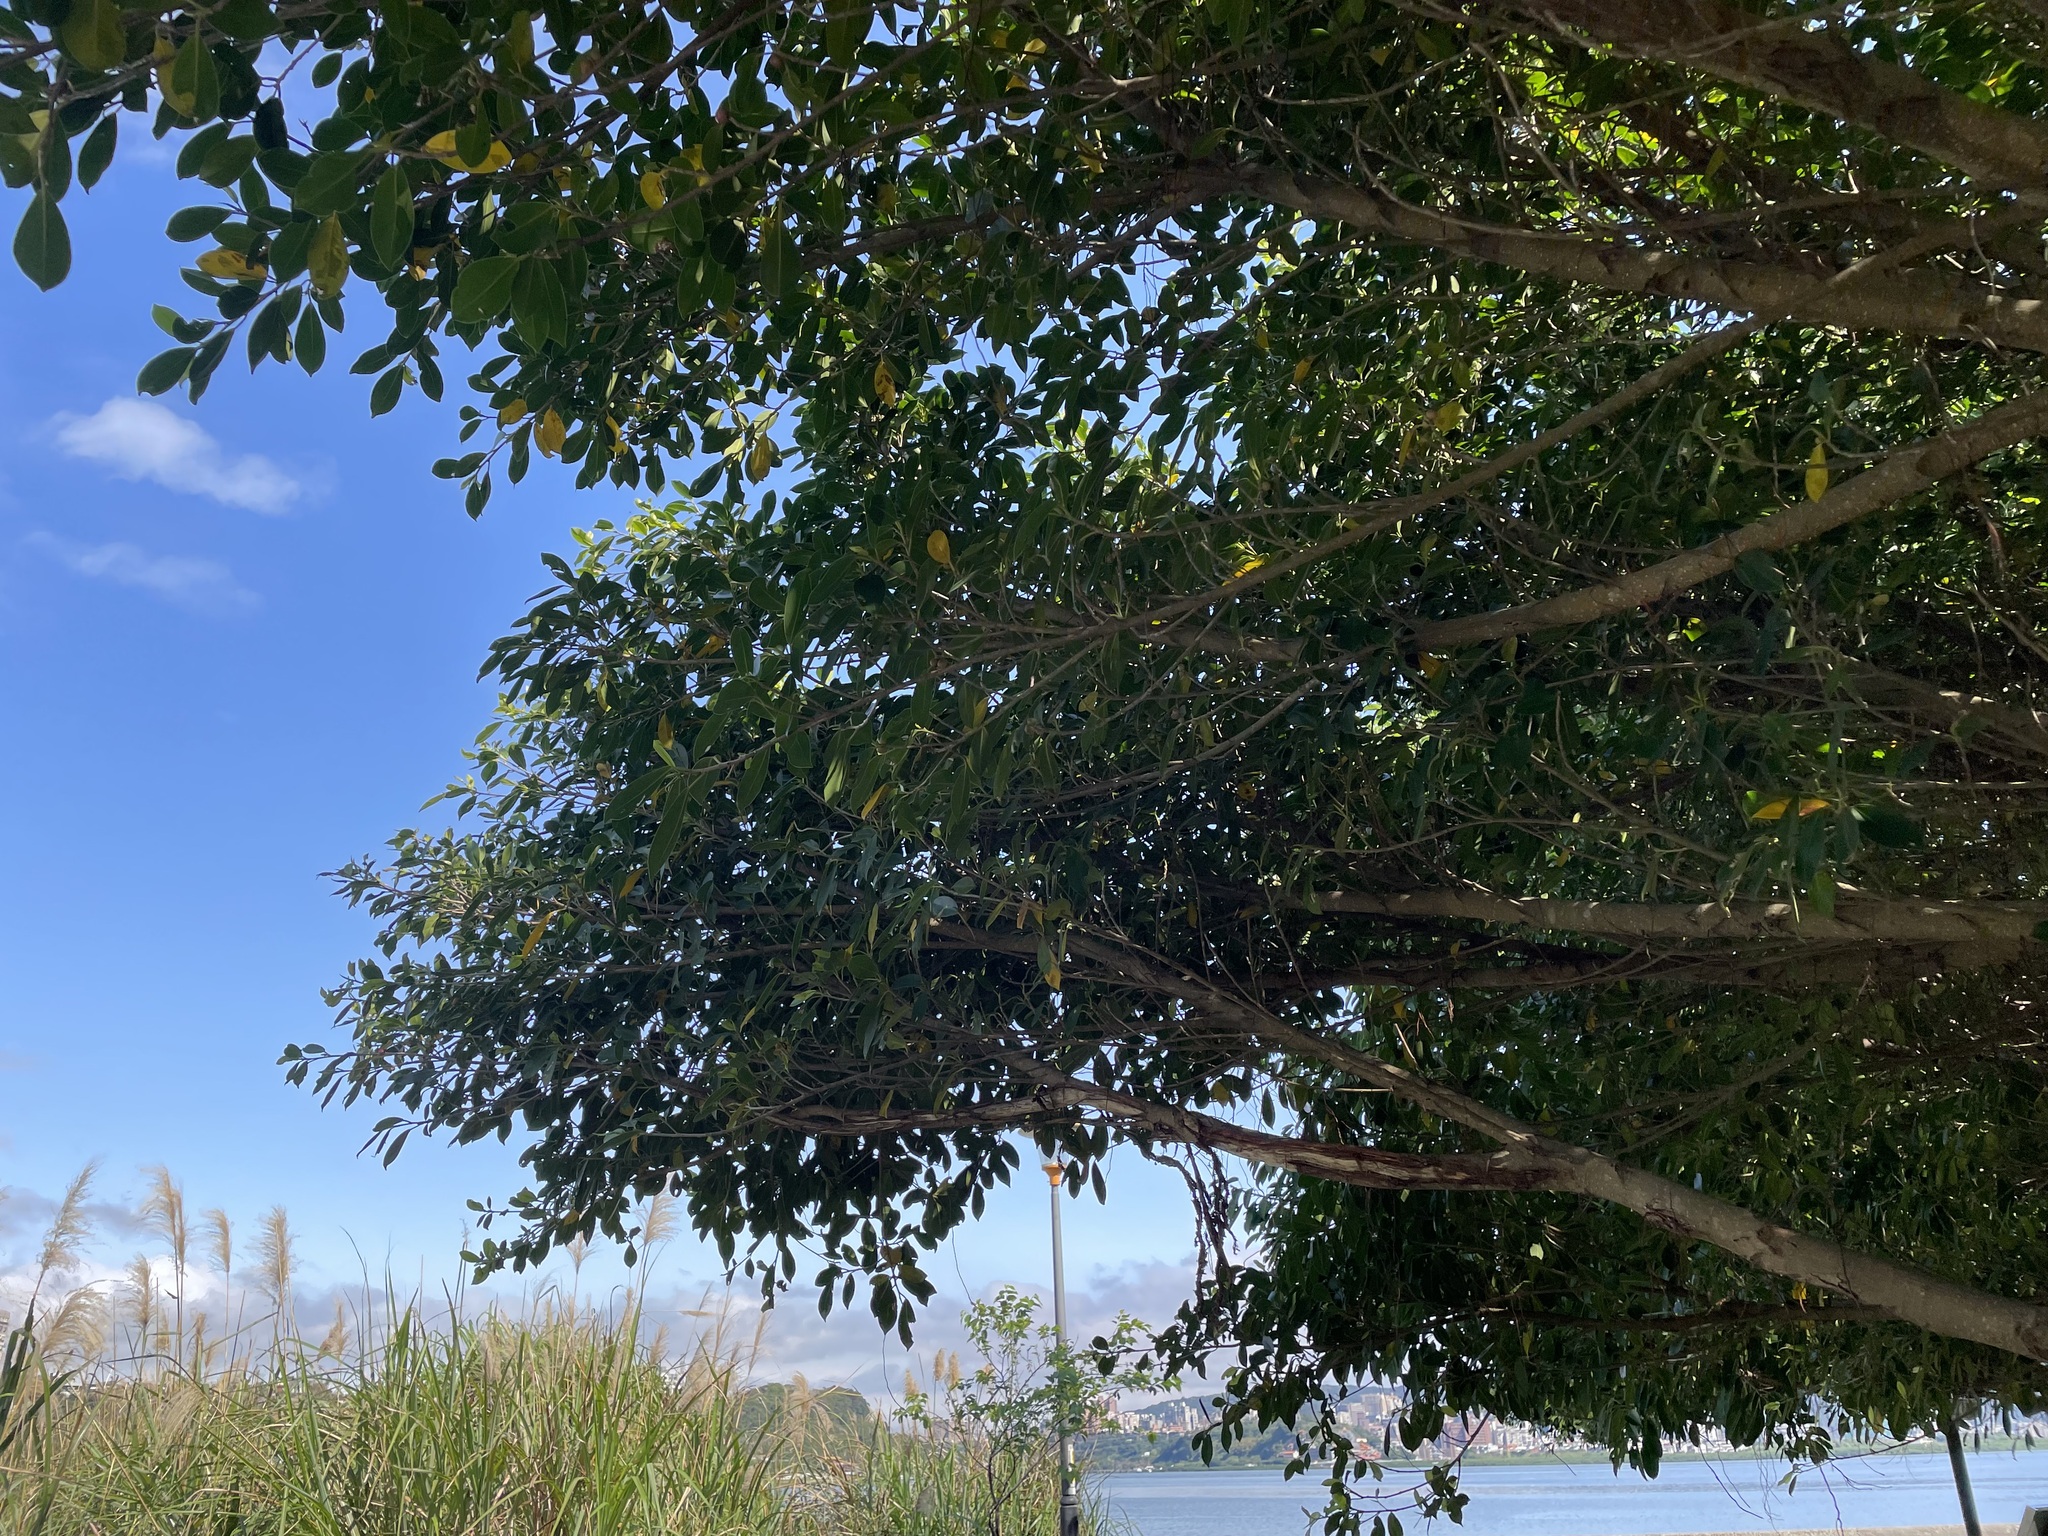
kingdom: Plantae
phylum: Tracheophyta
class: Magnoliopsida
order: Rosales
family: Moraceae
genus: Ficus
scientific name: Ficus microcarpa
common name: Chinese banyan
